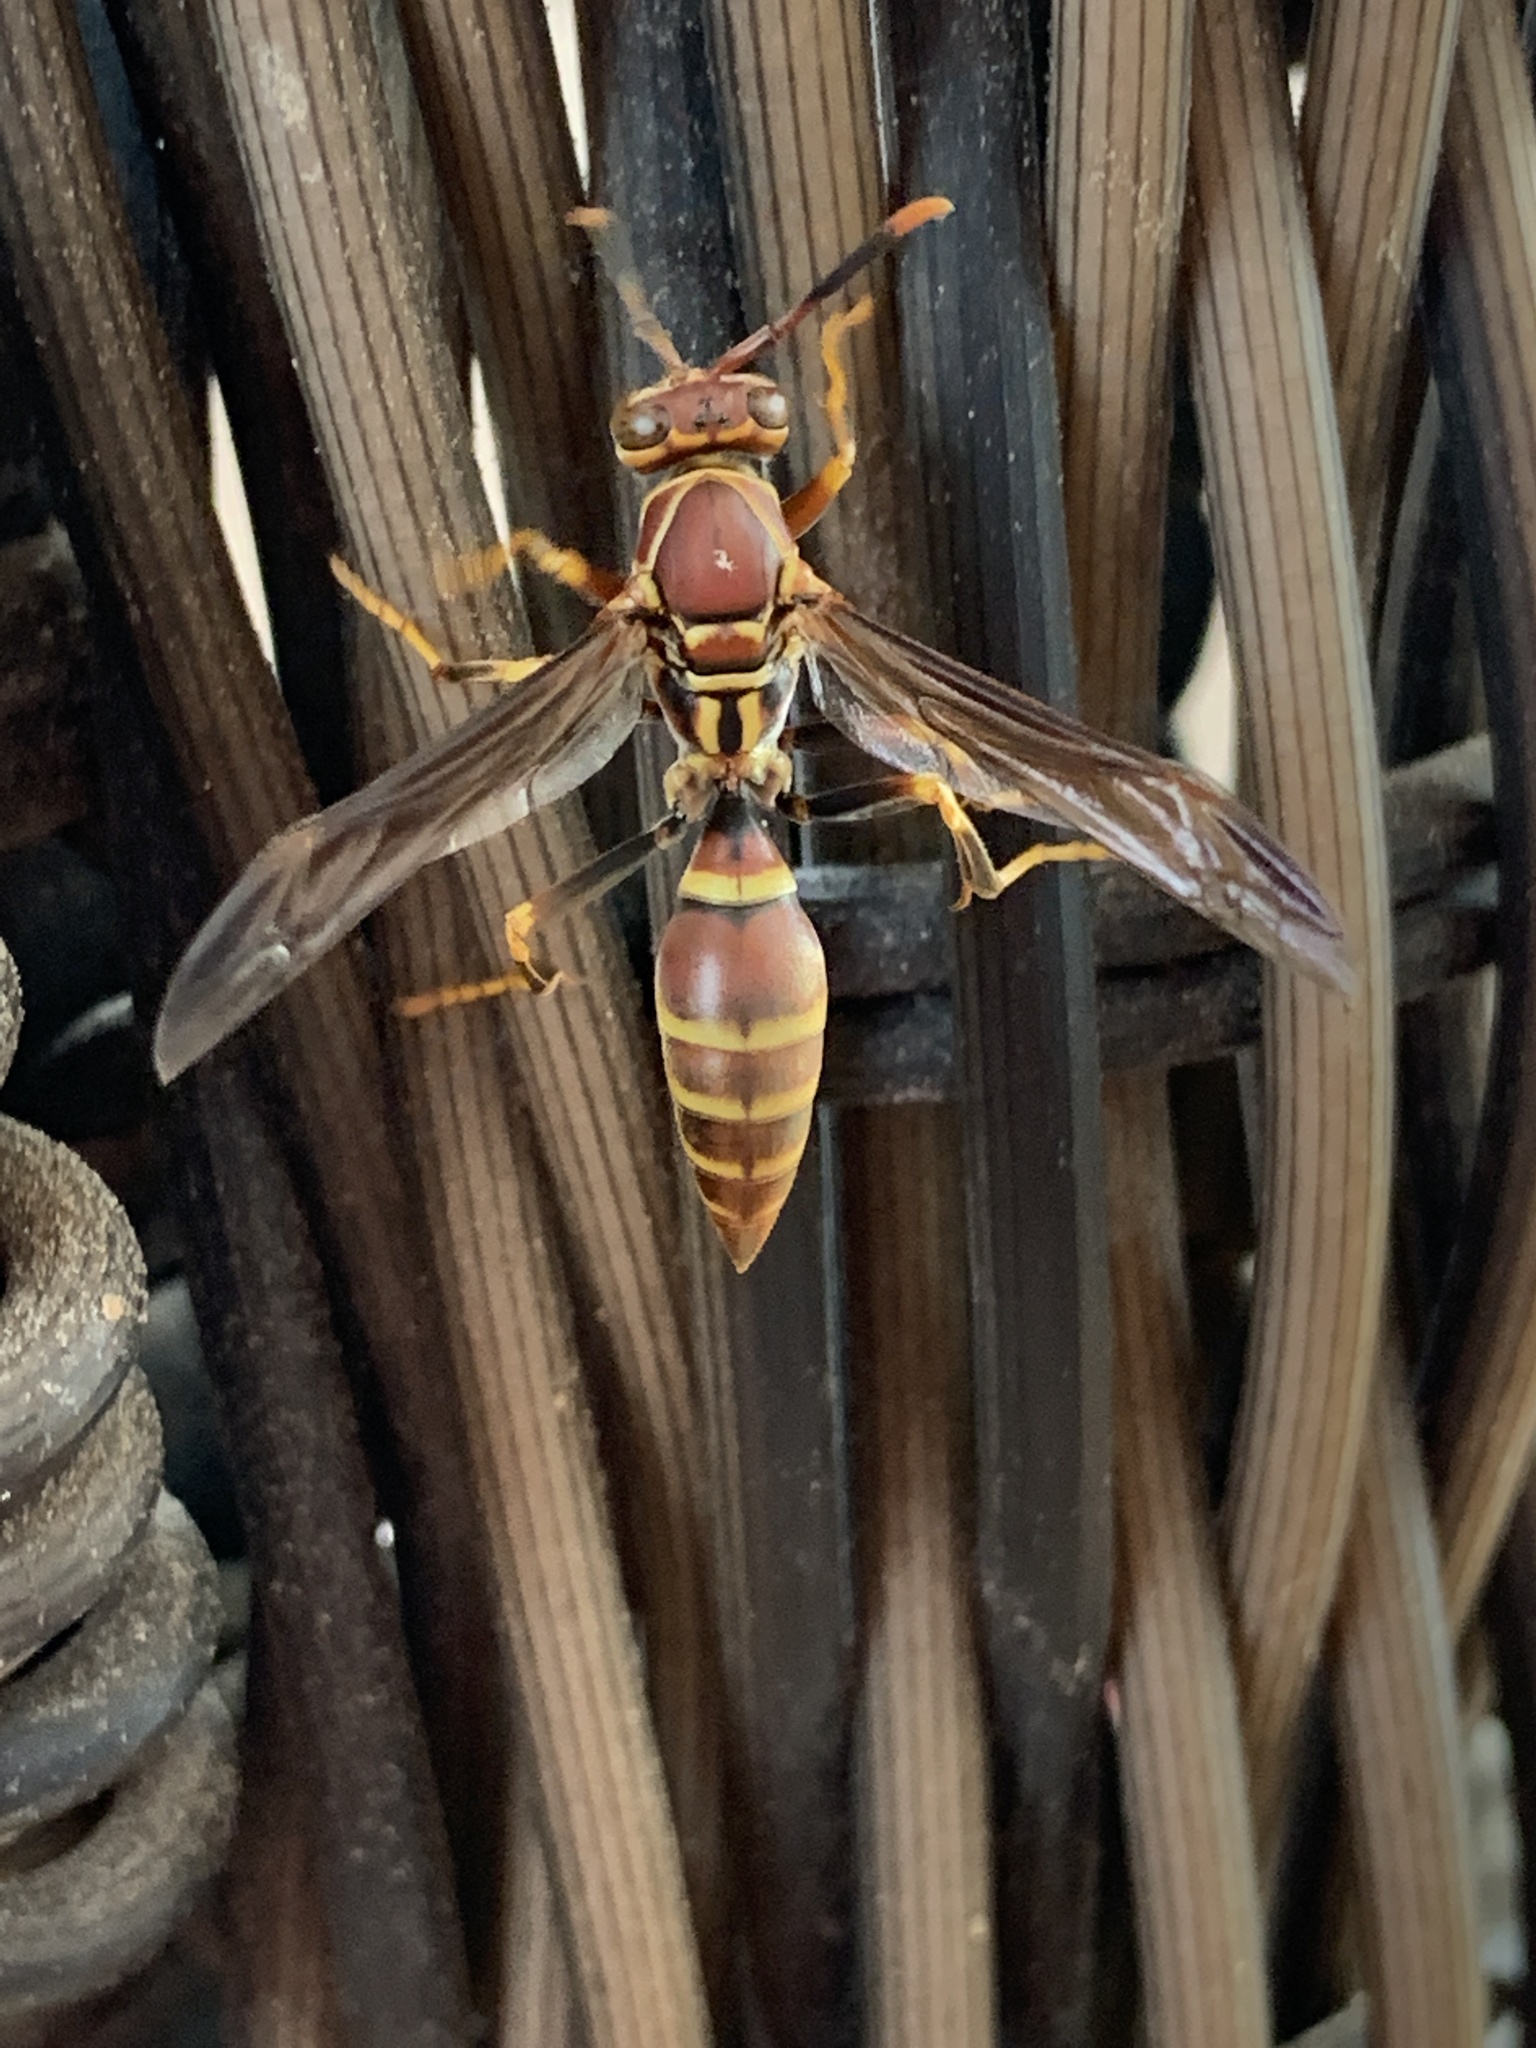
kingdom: Animalia
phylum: Arthropoda
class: Insecta
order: Hymenoptera
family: Eumenidae
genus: Polistes
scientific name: Polistes exclamans
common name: Paper wasp
